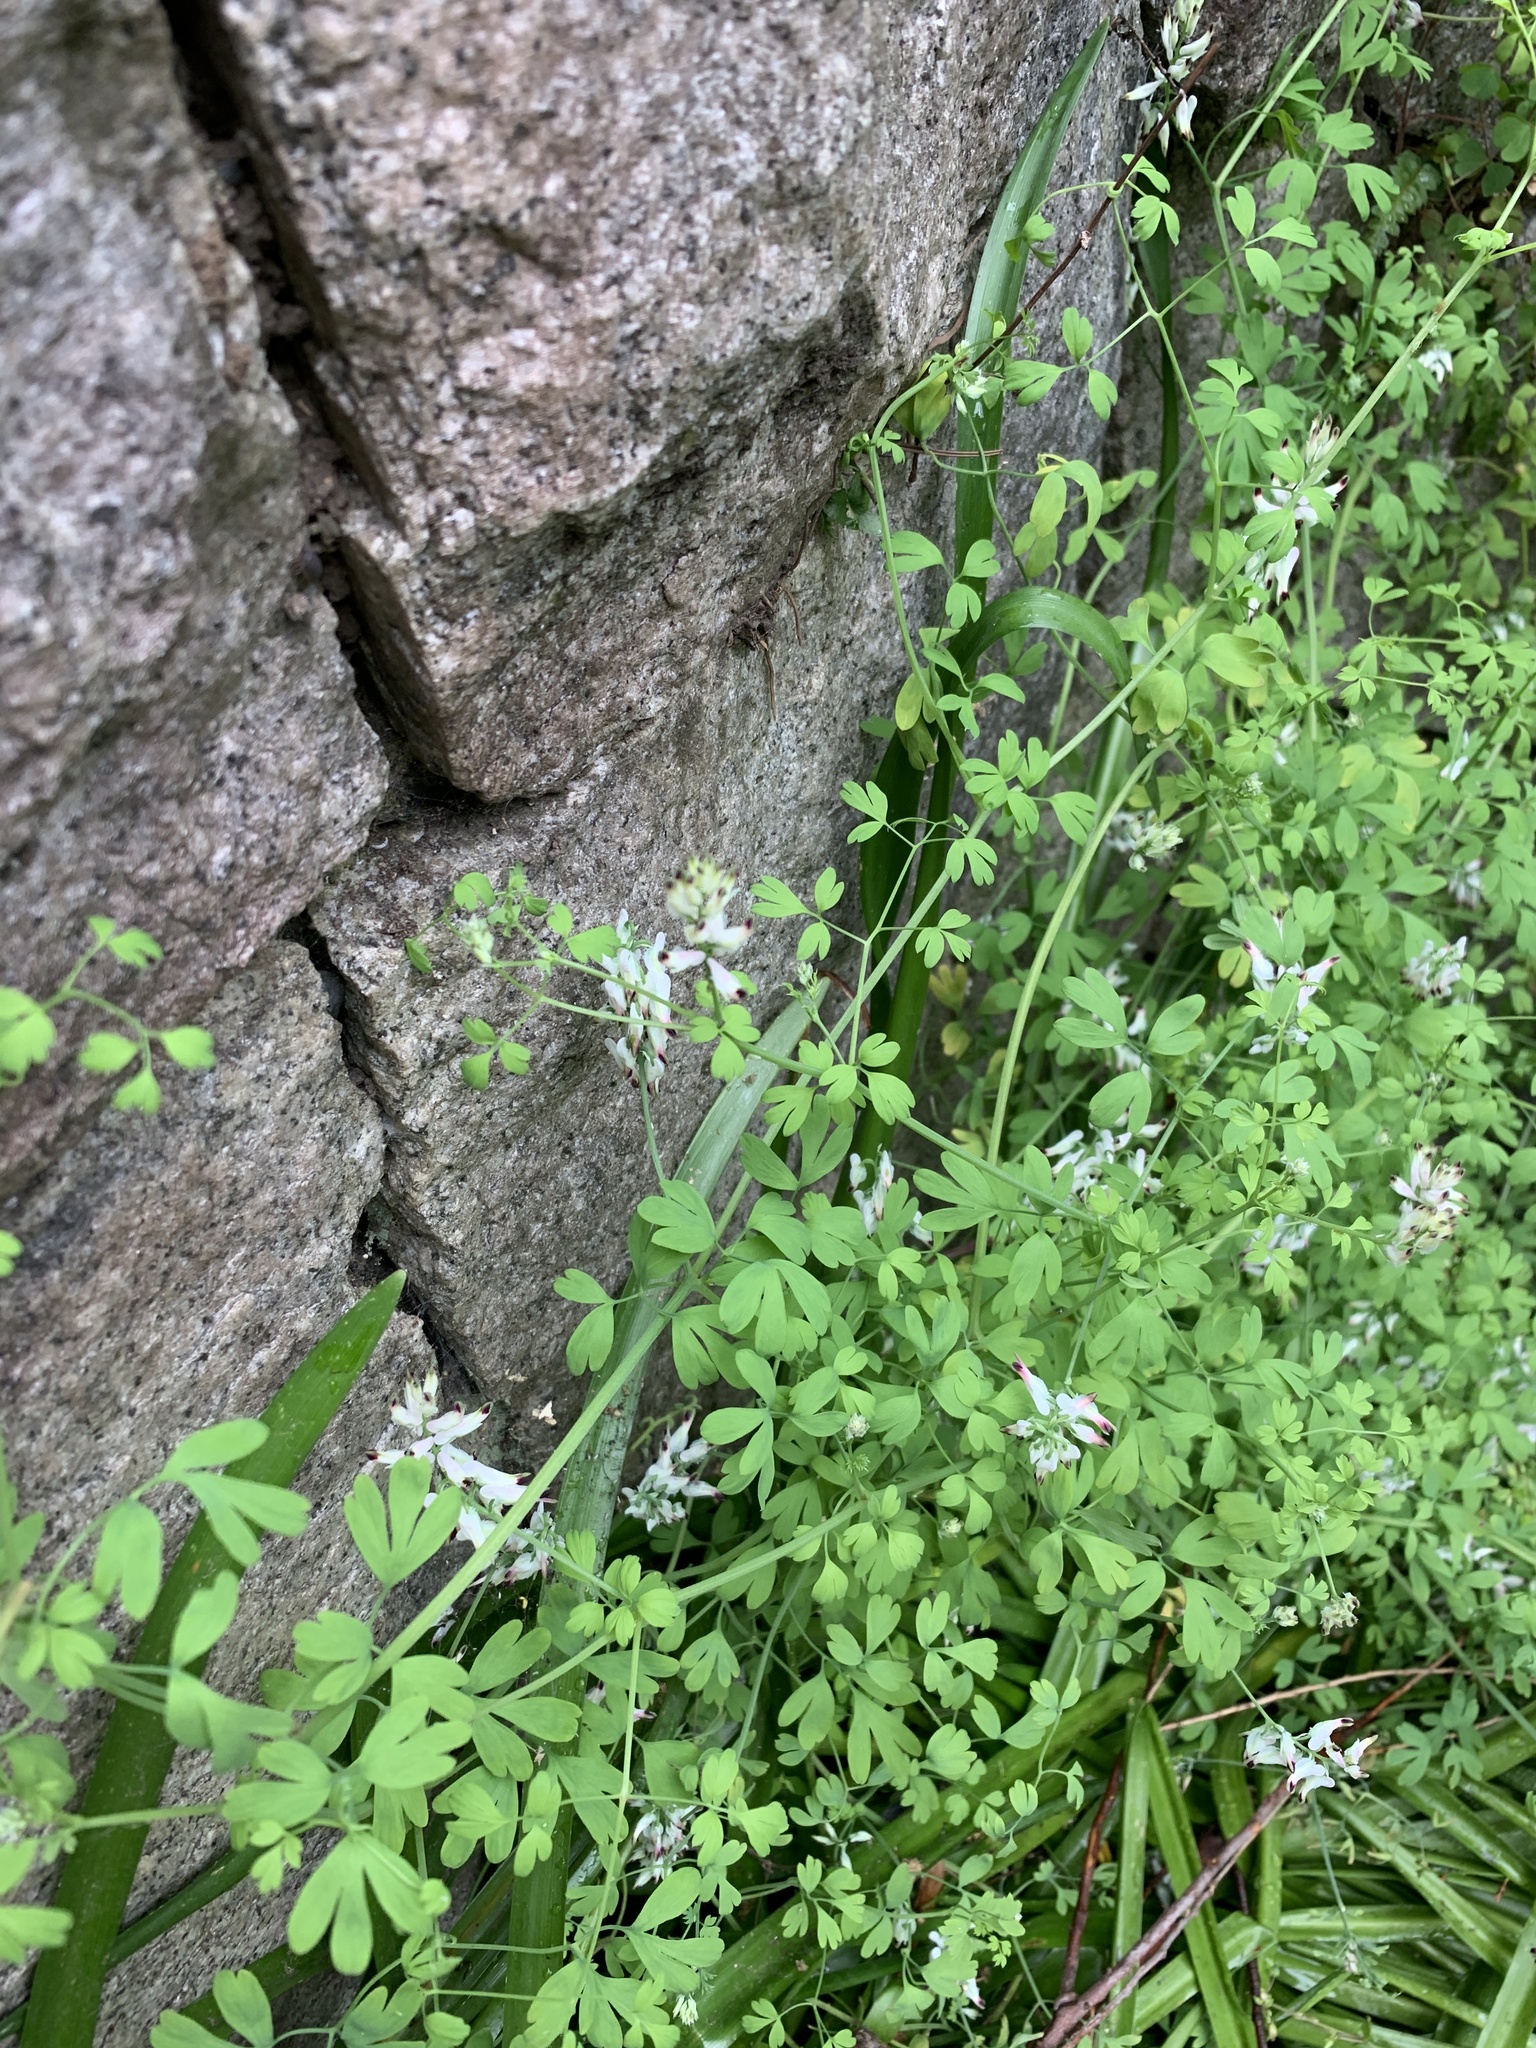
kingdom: Plantae
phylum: Tracheophyta
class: Magnoliopsida
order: Ranunculales
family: Papaveraceae
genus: Fumaria
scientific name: Fumaria capreolata
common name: White ramping-fumitory
